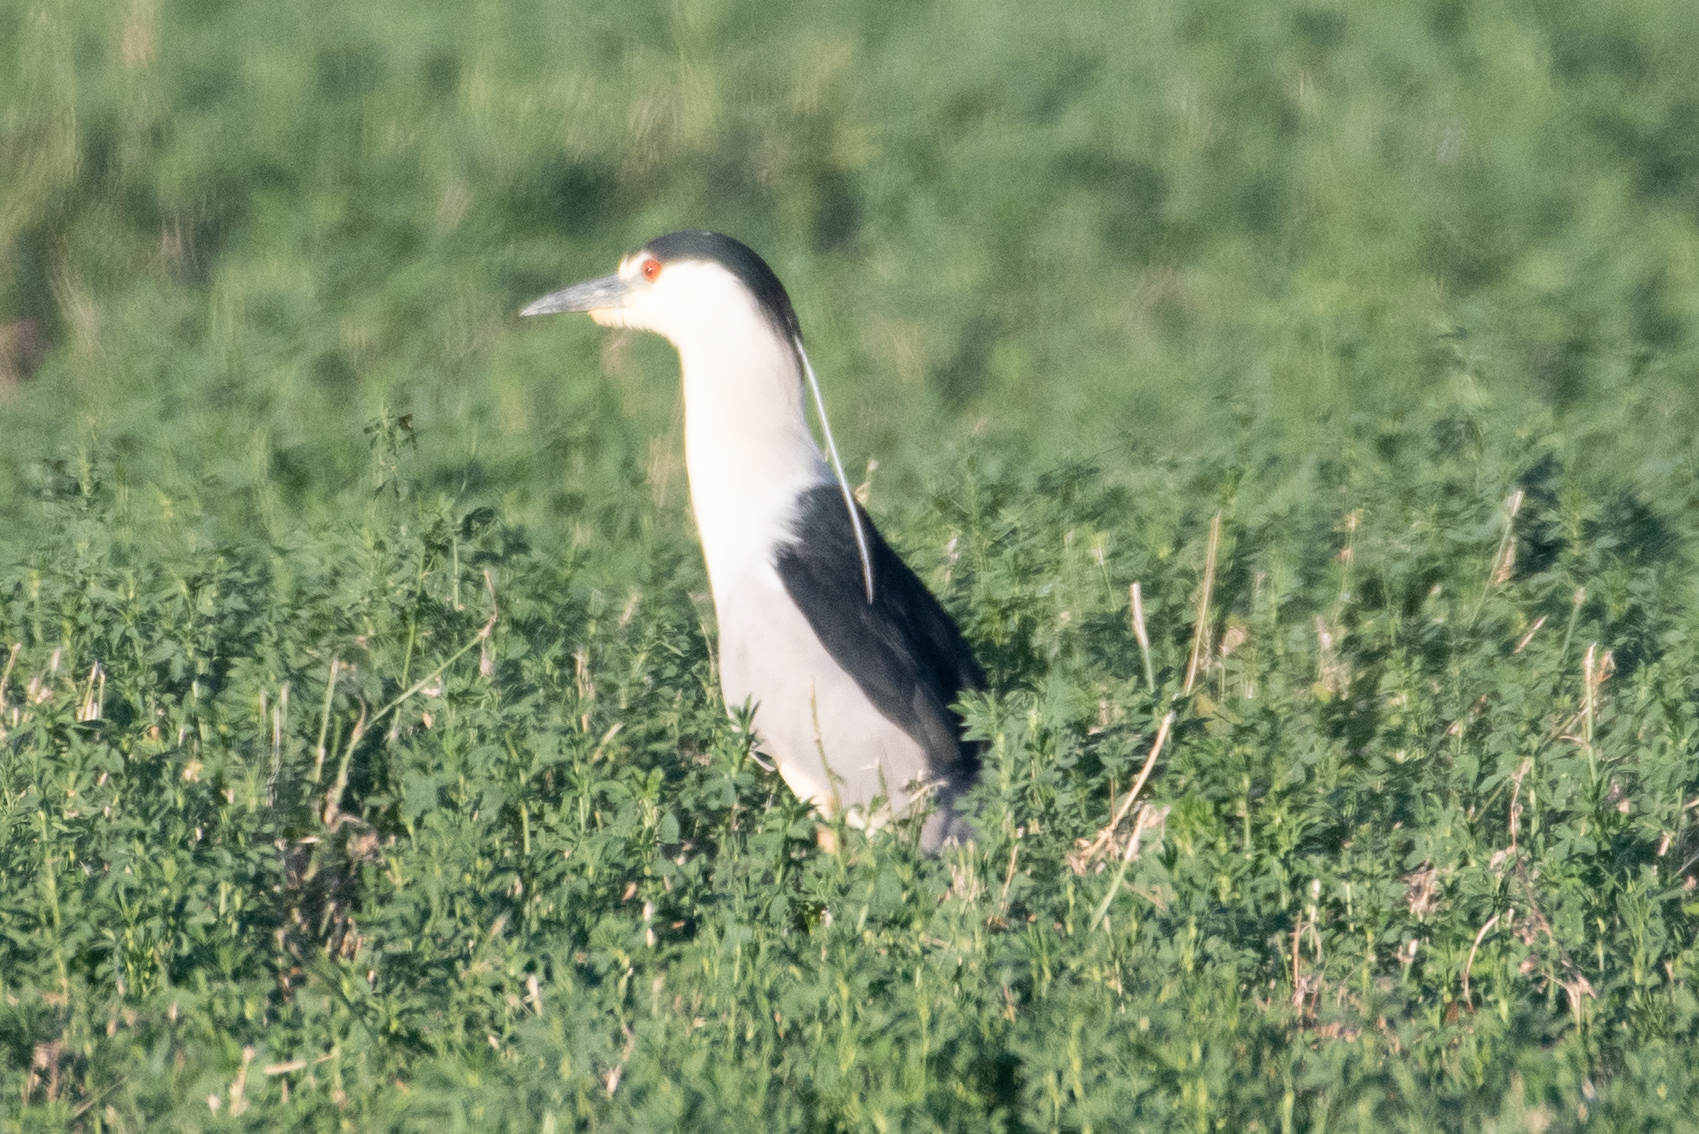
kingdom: Animalia
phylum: Chordata
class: Aves
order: Pelecaniformes
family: Ardeidae
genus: Nycticorax
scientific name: Nycticorax nycticorax
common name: Black-crowned night heron
